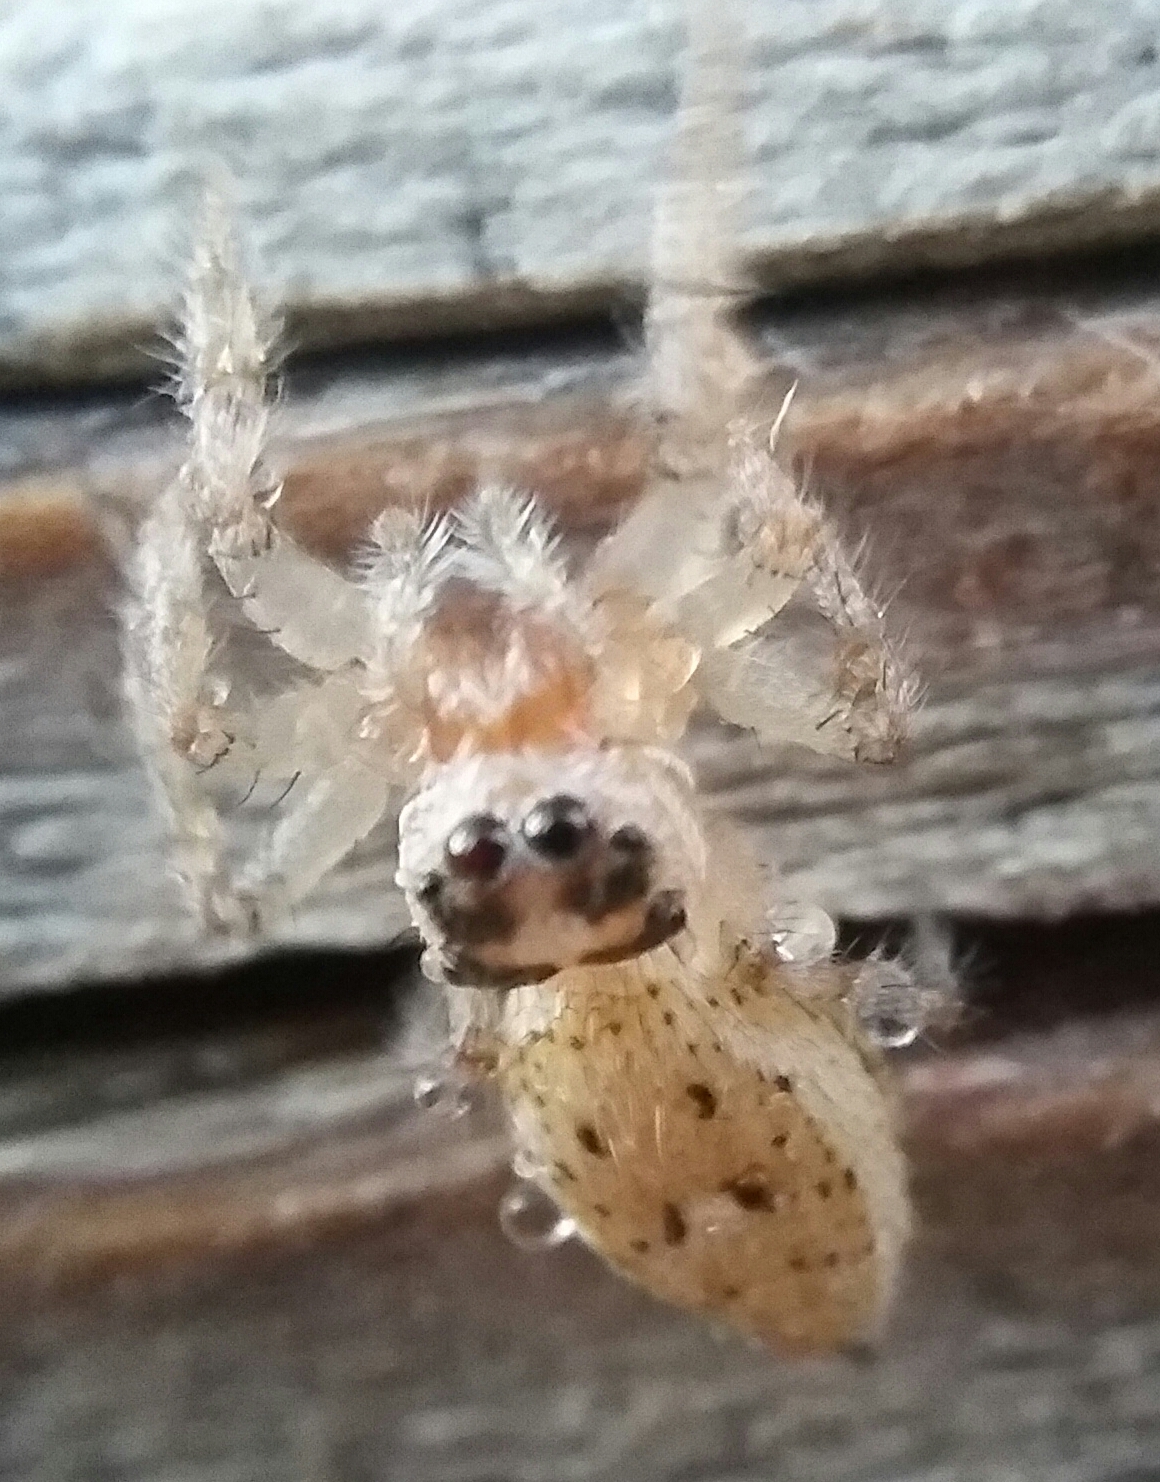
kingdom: Animalia
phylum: Arthropoda
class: Arachnida
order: Araneae
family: Salticidae
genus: Colonus
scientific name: Colonus hesperus
